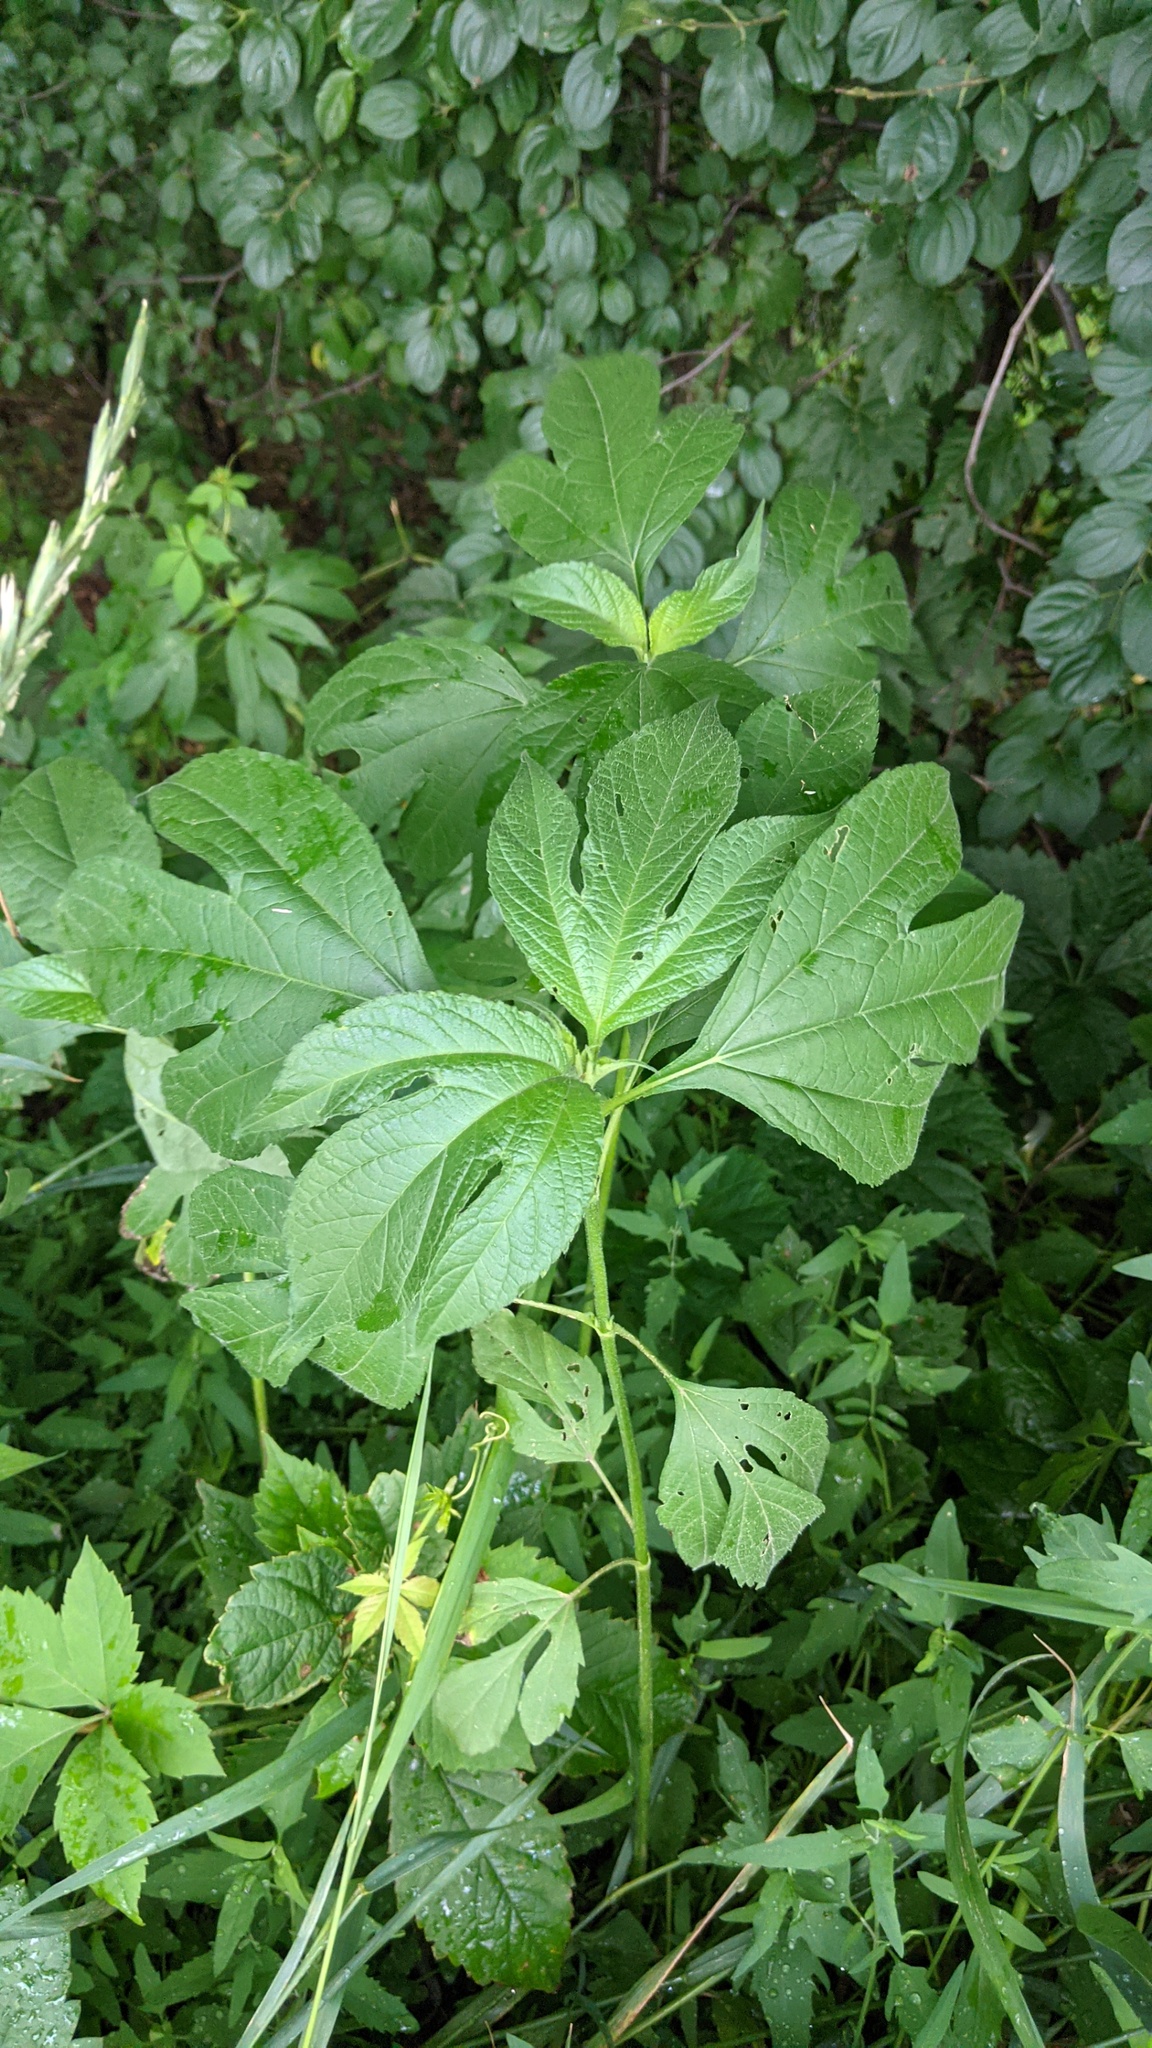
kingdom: Plantae
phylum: Tracheophyta
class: Magnoliopsida
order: Asterales
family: Asteraceae
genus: Ambrosia
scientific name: Ambrosia trifida
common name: Giant ragweed
